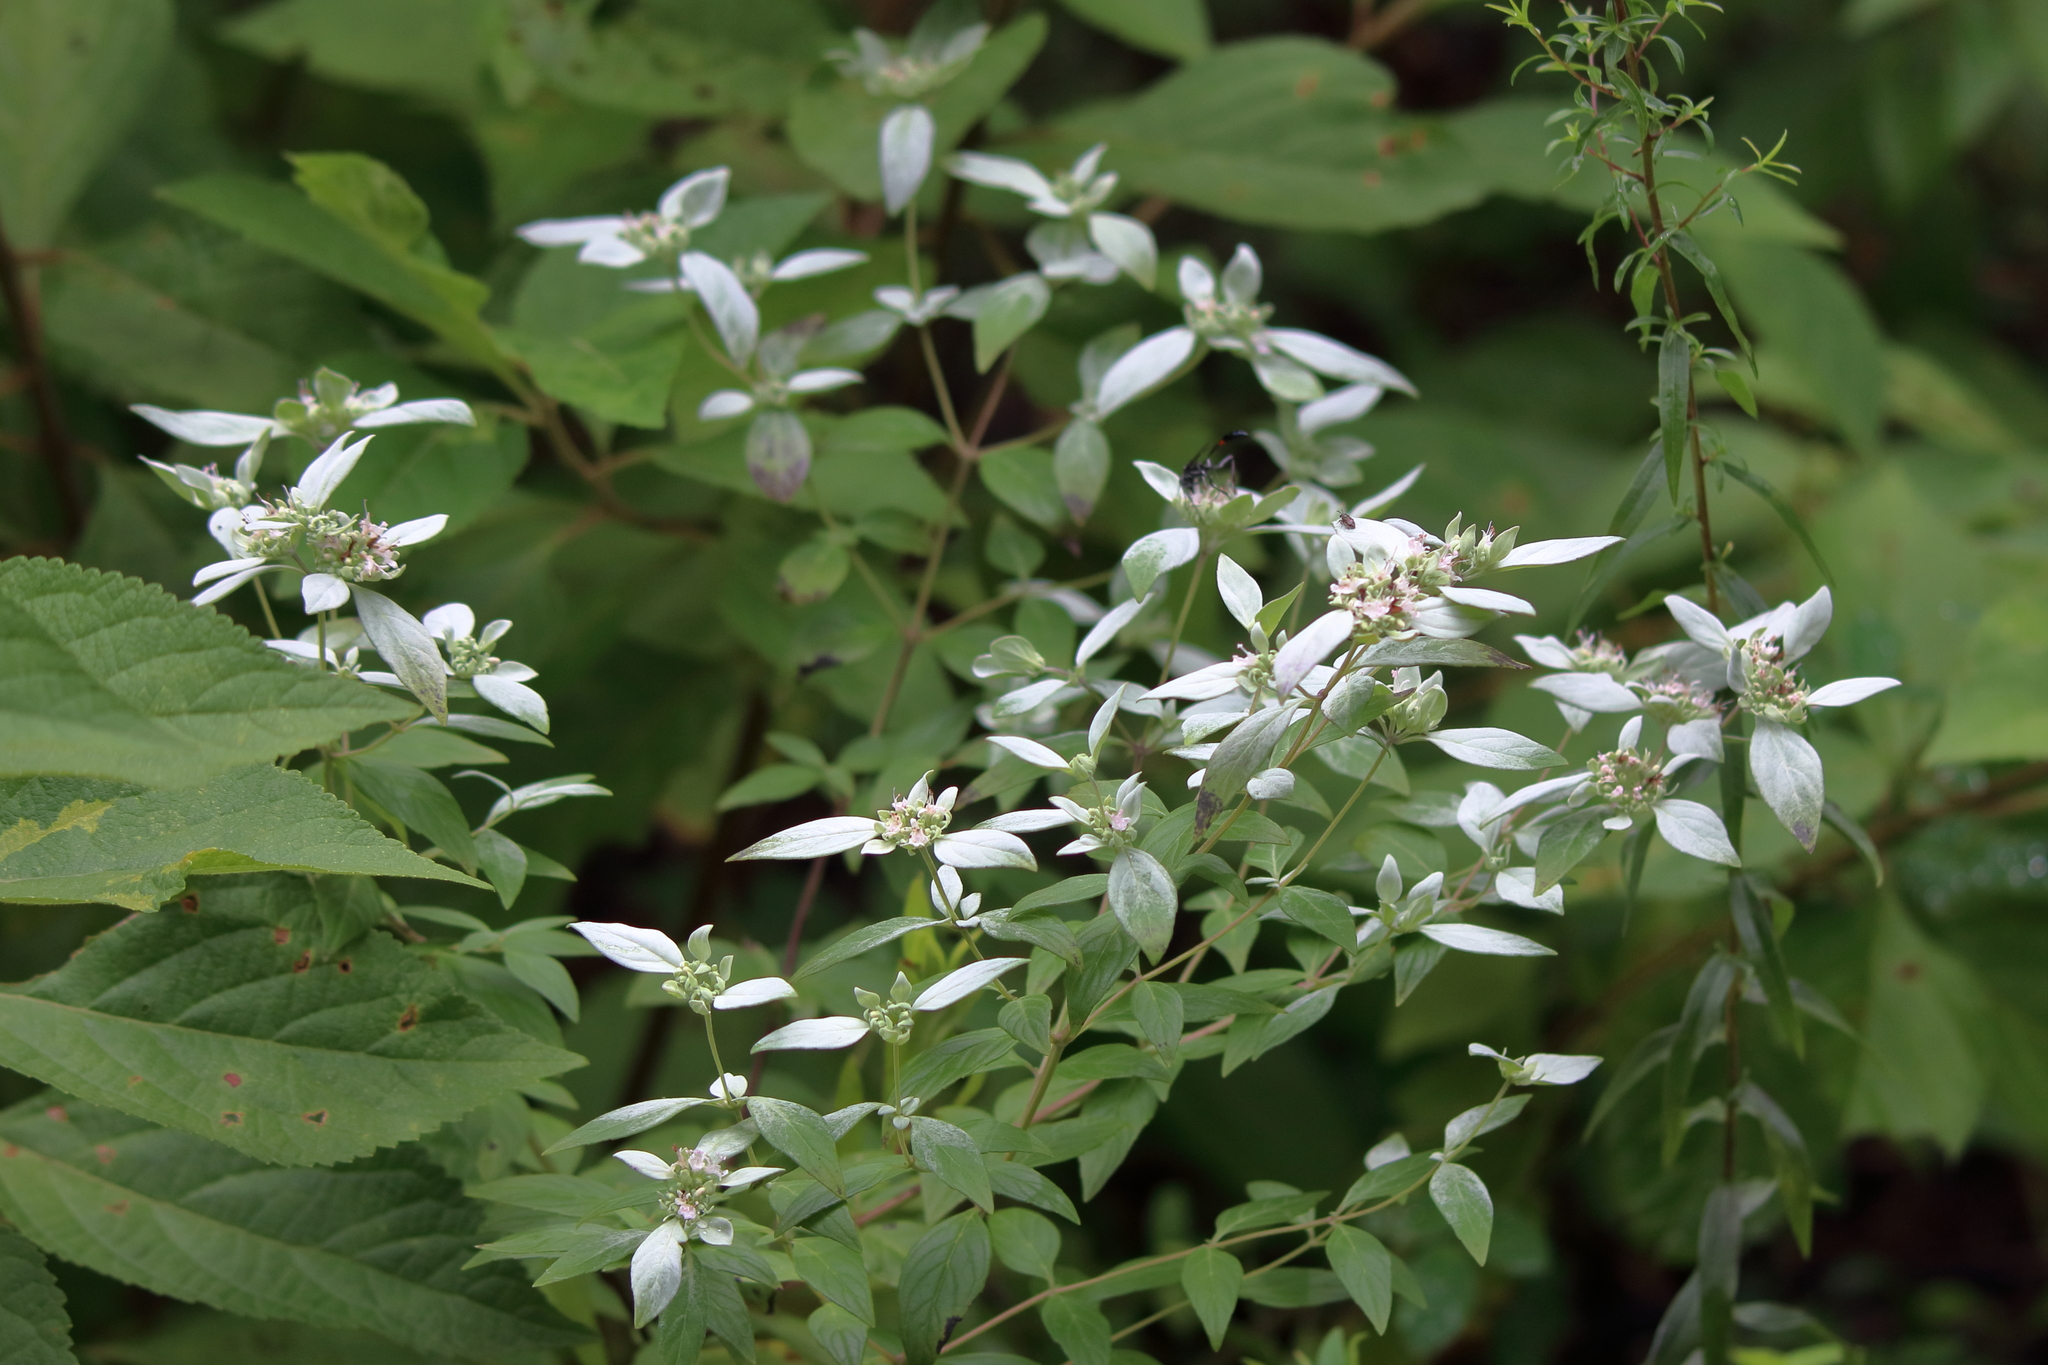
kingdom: Plantae
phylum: Tracheophyta
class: Magnoliopsida
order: Lamiales
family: Lamiaceae
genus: Pycnanthemum
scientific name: Pycnanthemum albescens
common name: White-leaf mountain-mint
